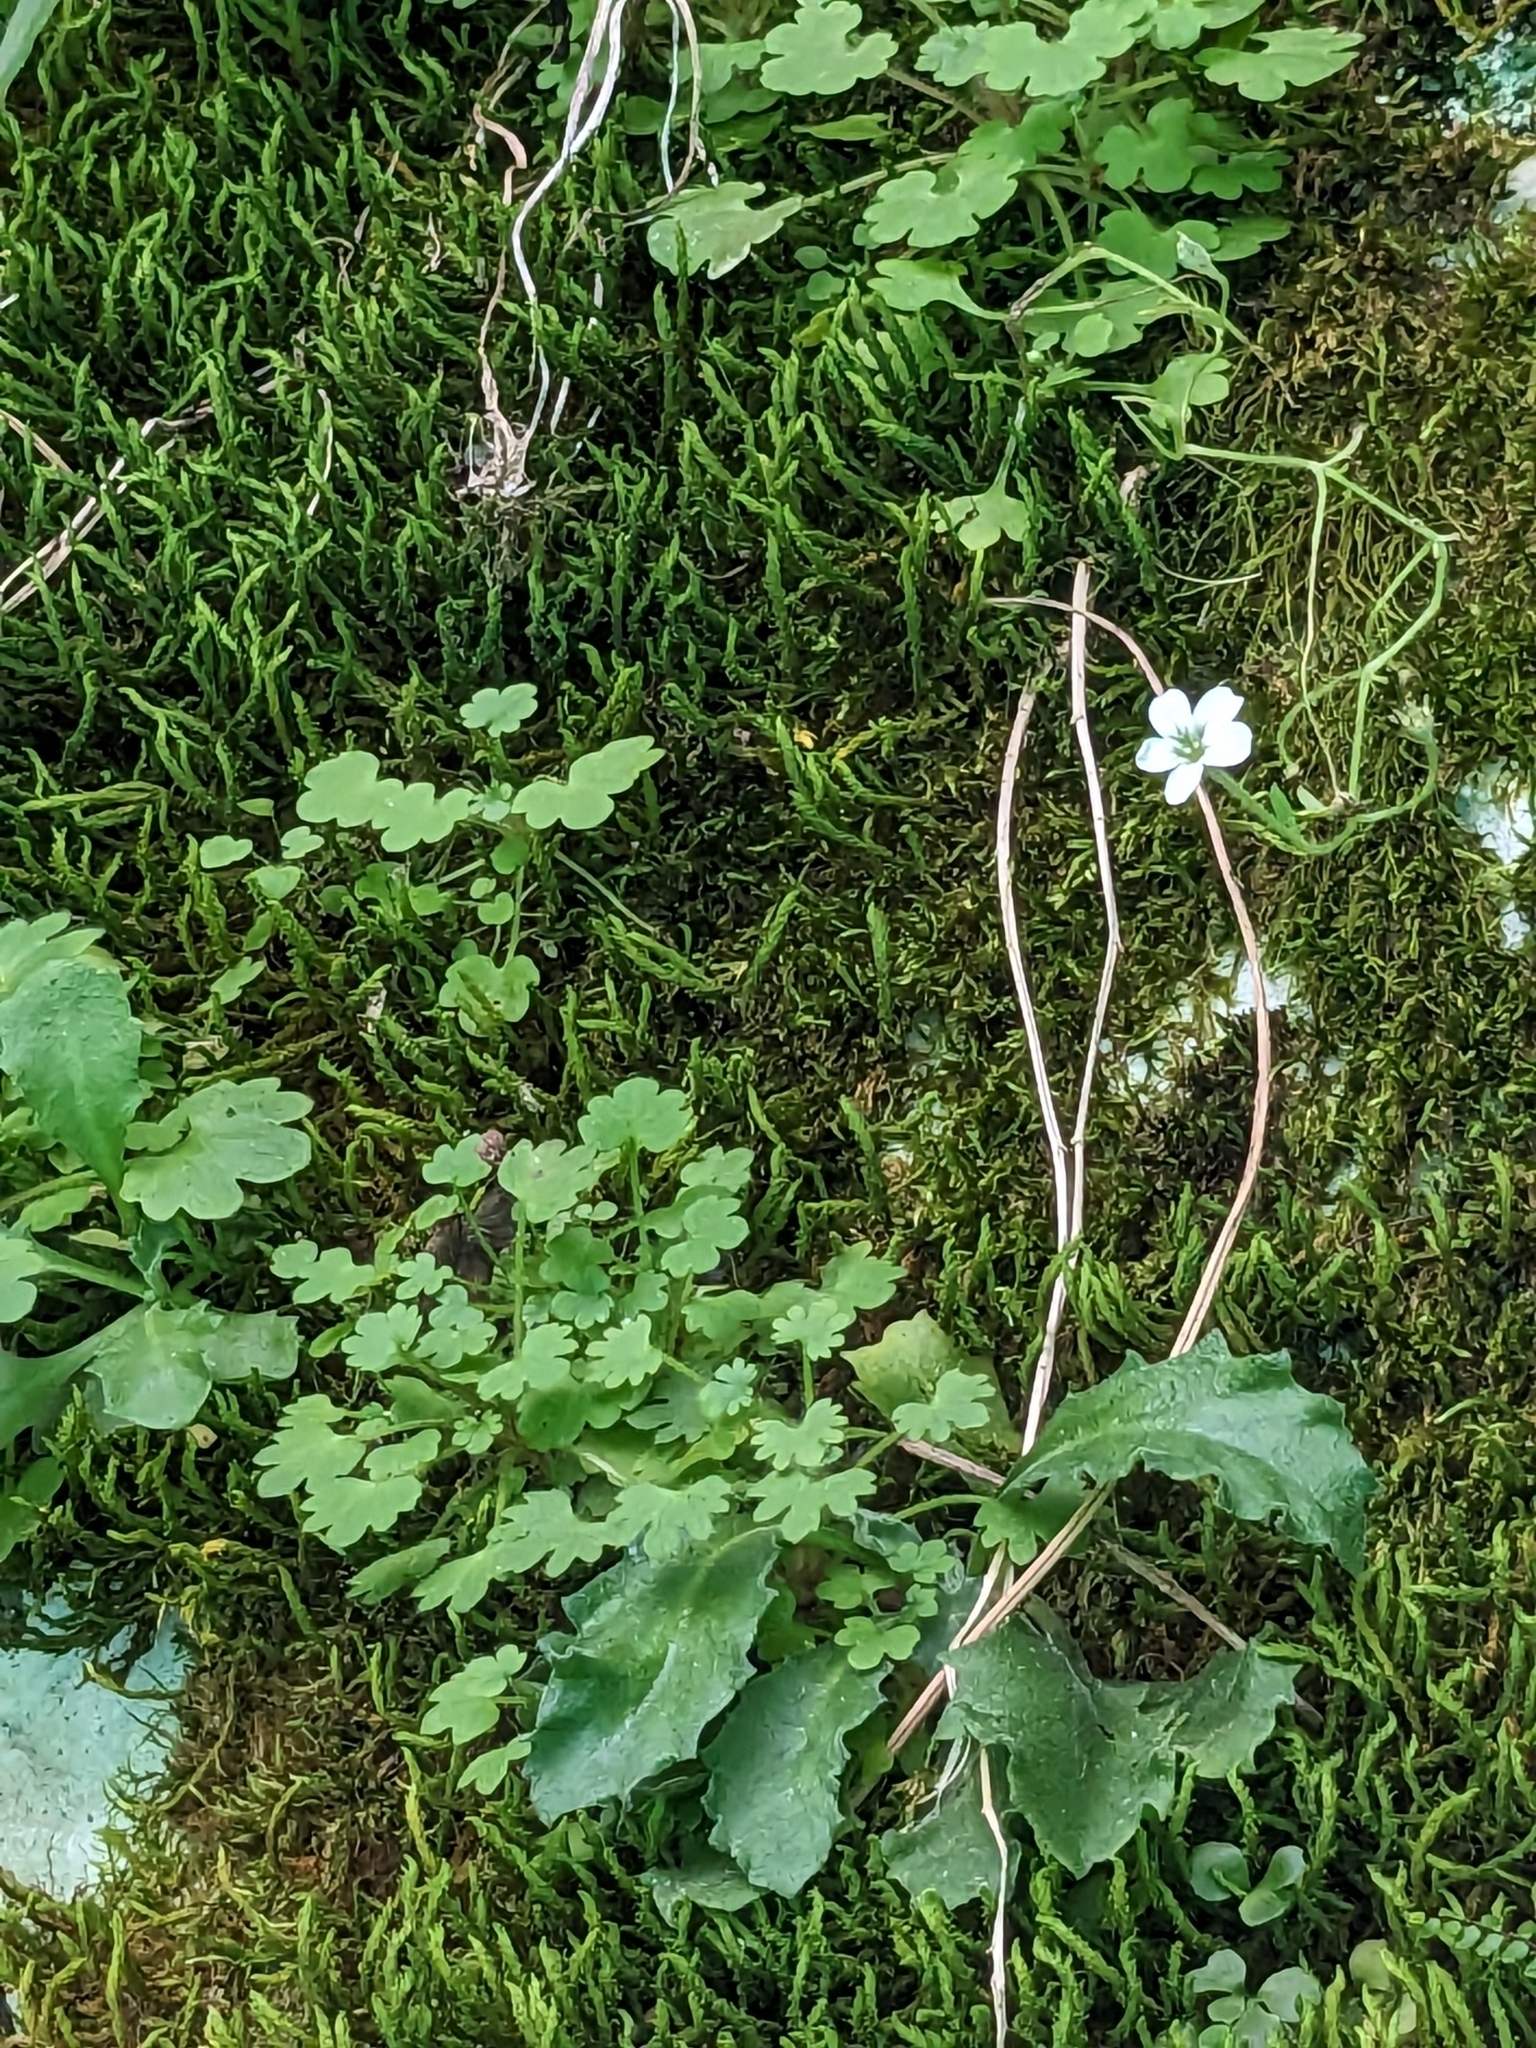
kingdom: Plantae
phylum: Tracheophyta
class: Magnoliopsida
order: Saxifragales
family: Saxifragaceae
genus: Saxifraga
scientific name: Saxifraga petraea
